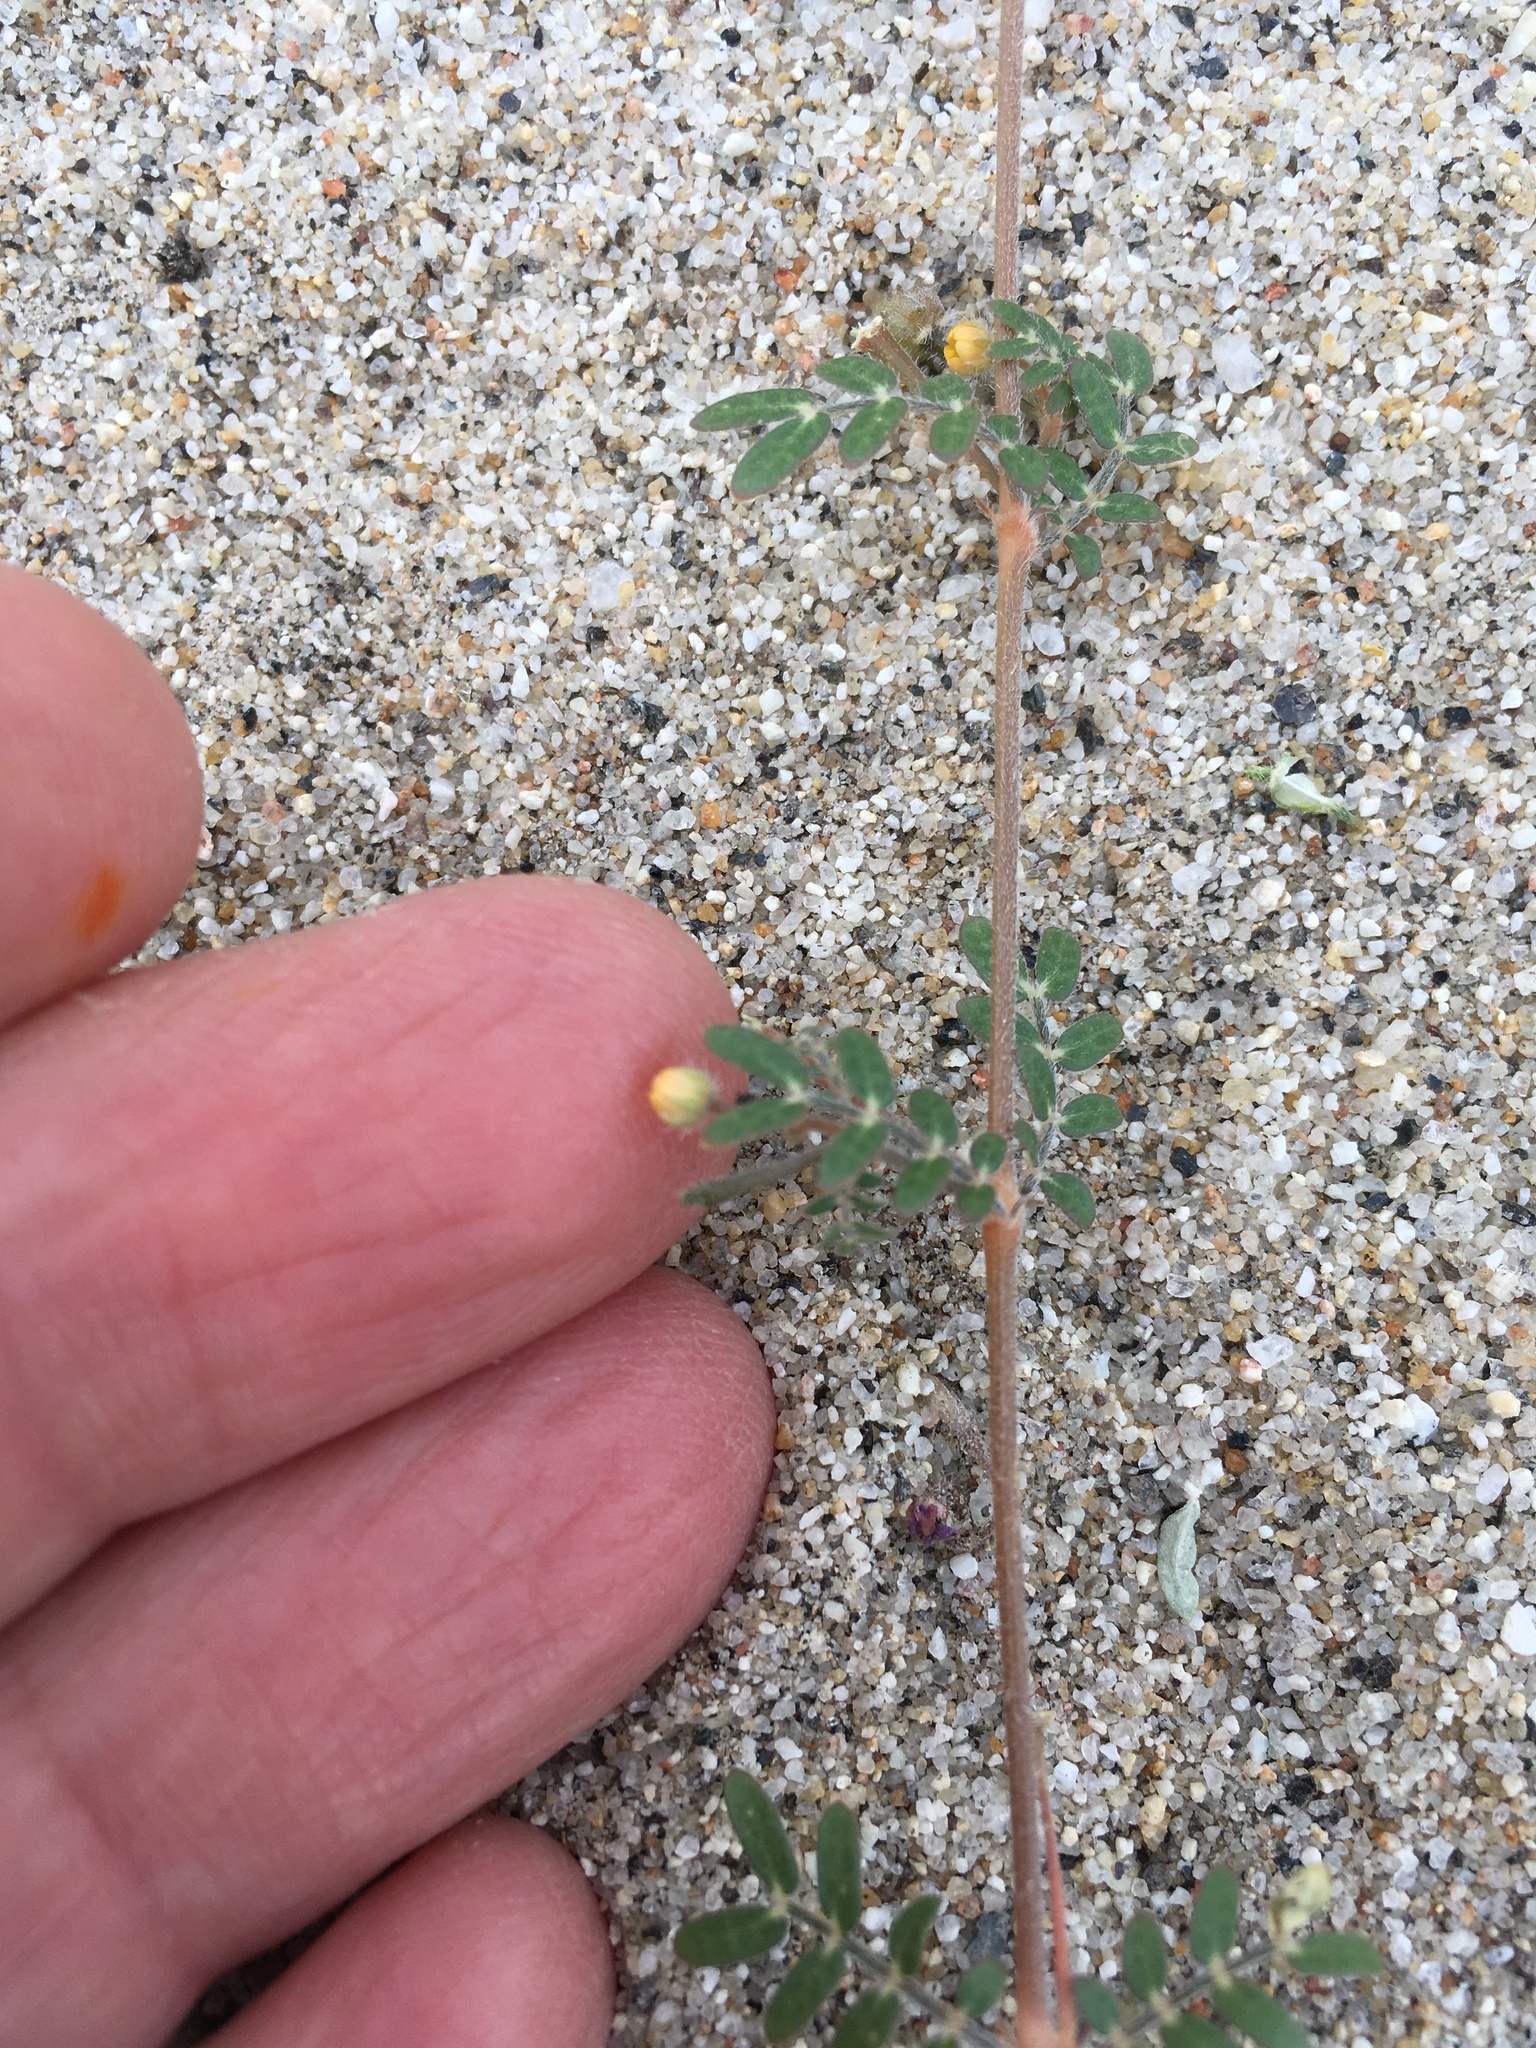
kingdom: Plantae
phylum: Tracheophyta
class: Magnoliopsida
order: Zygophyllales
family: Zygophyllaceae
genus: Kallstroemia
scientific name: Kallstroemia californica
